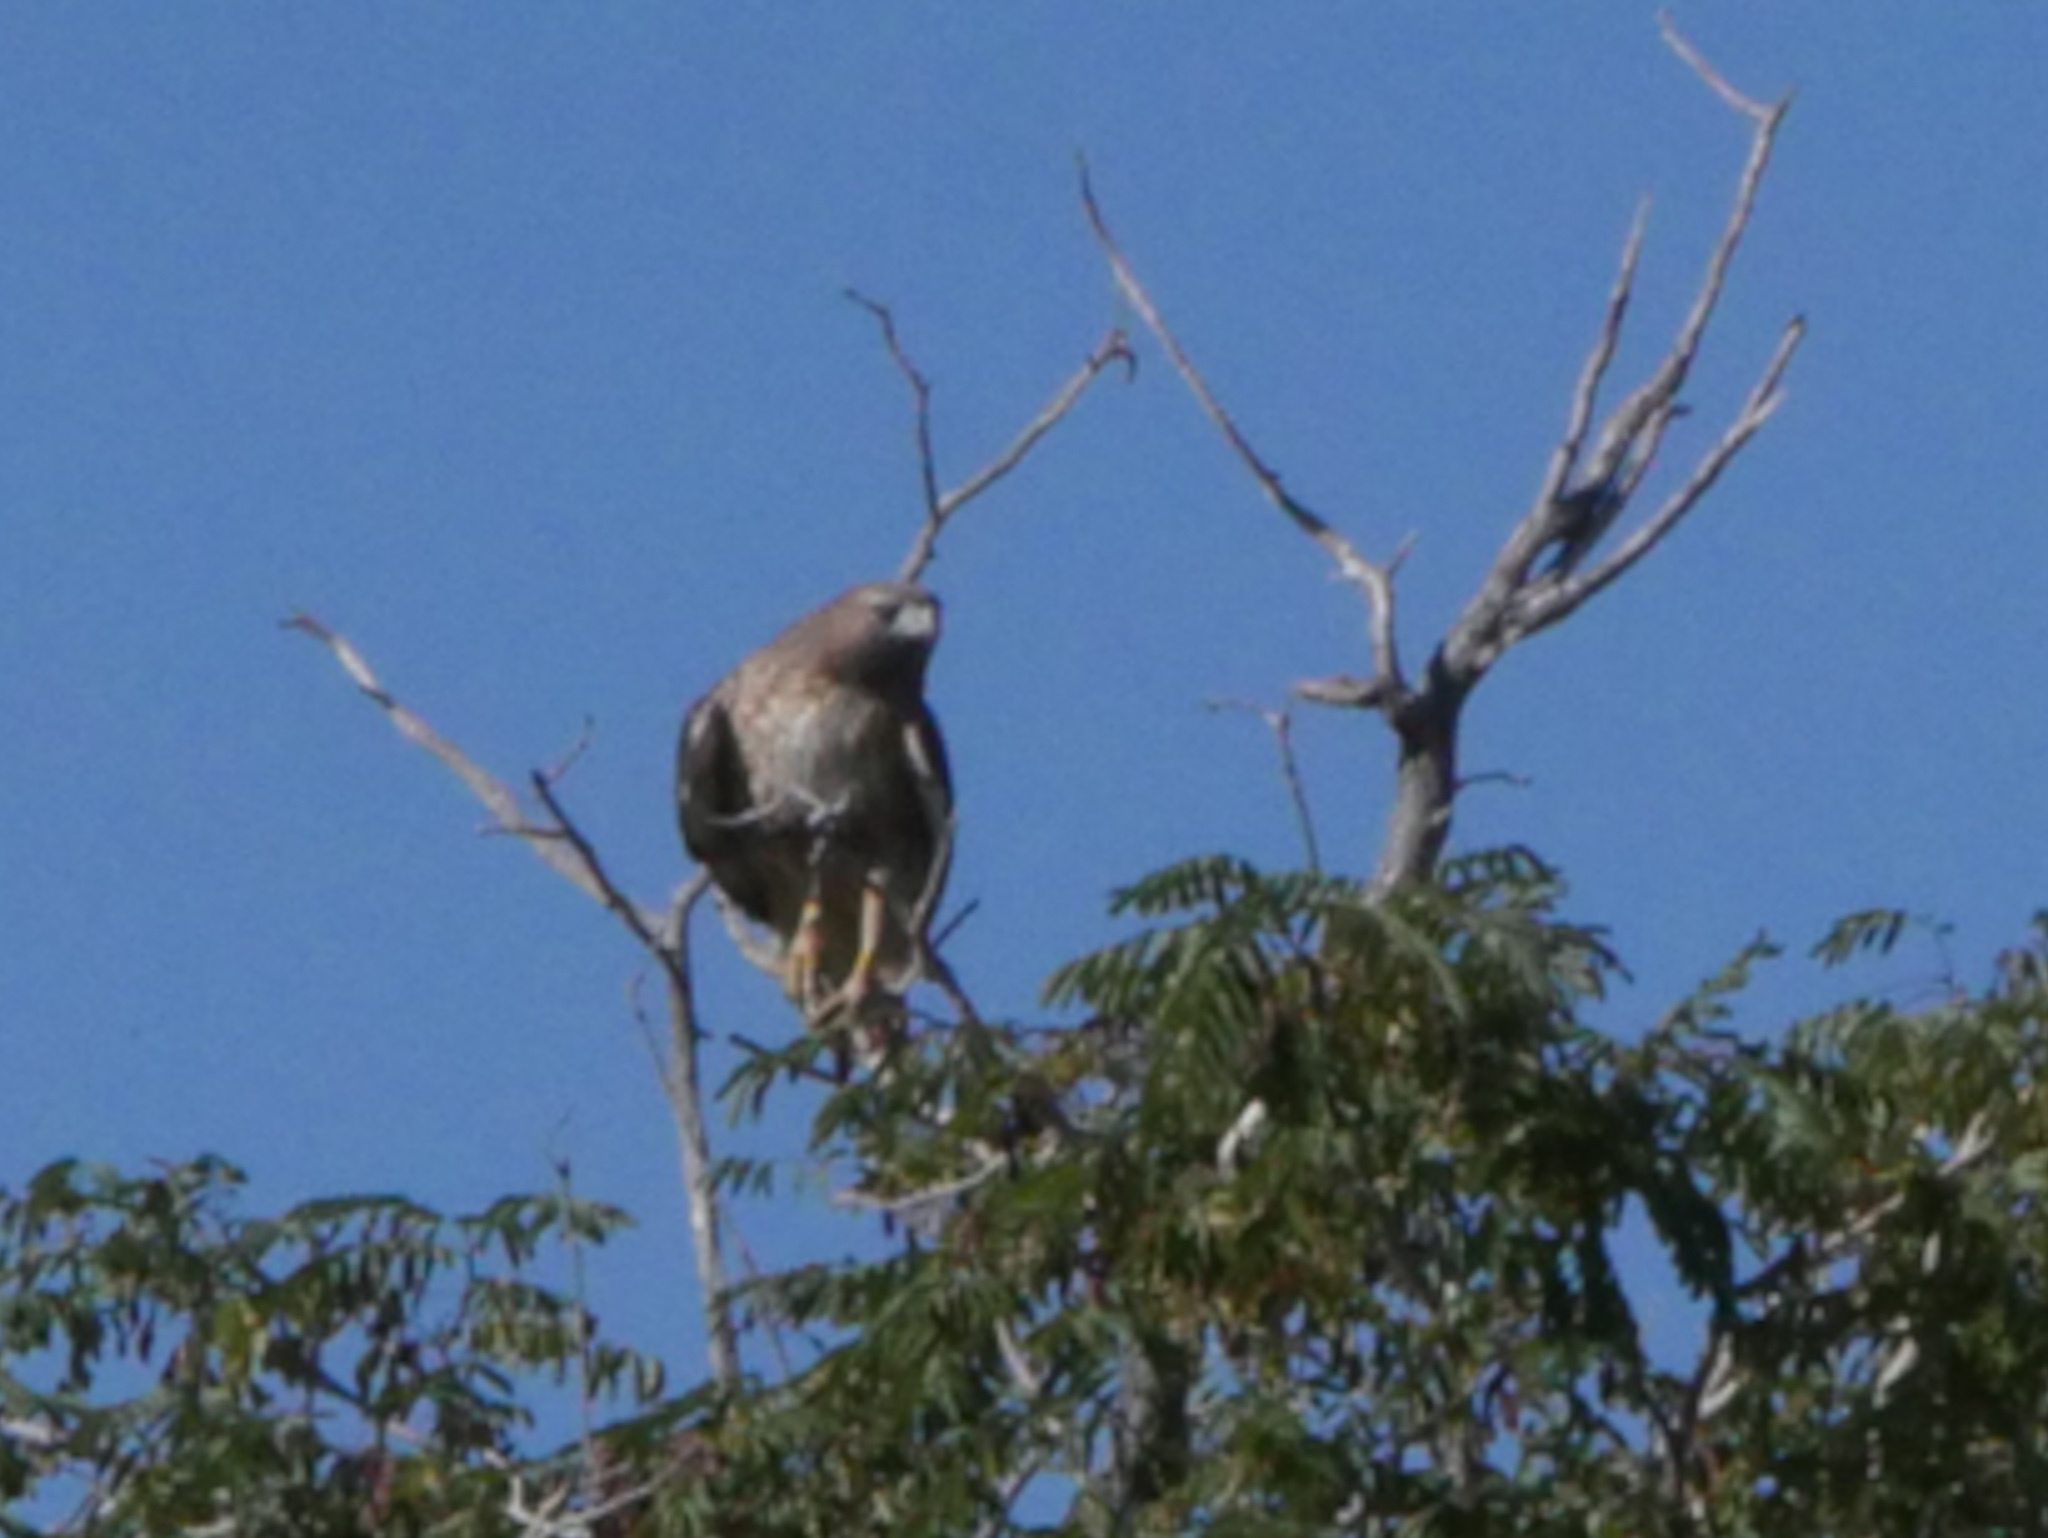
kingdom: Animalia
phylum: Chordata
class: Aves
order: Accipitriformes
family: Accipitridae
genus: Buteo
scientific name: Buteo jamaicensis
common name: Red-tailed hawk
